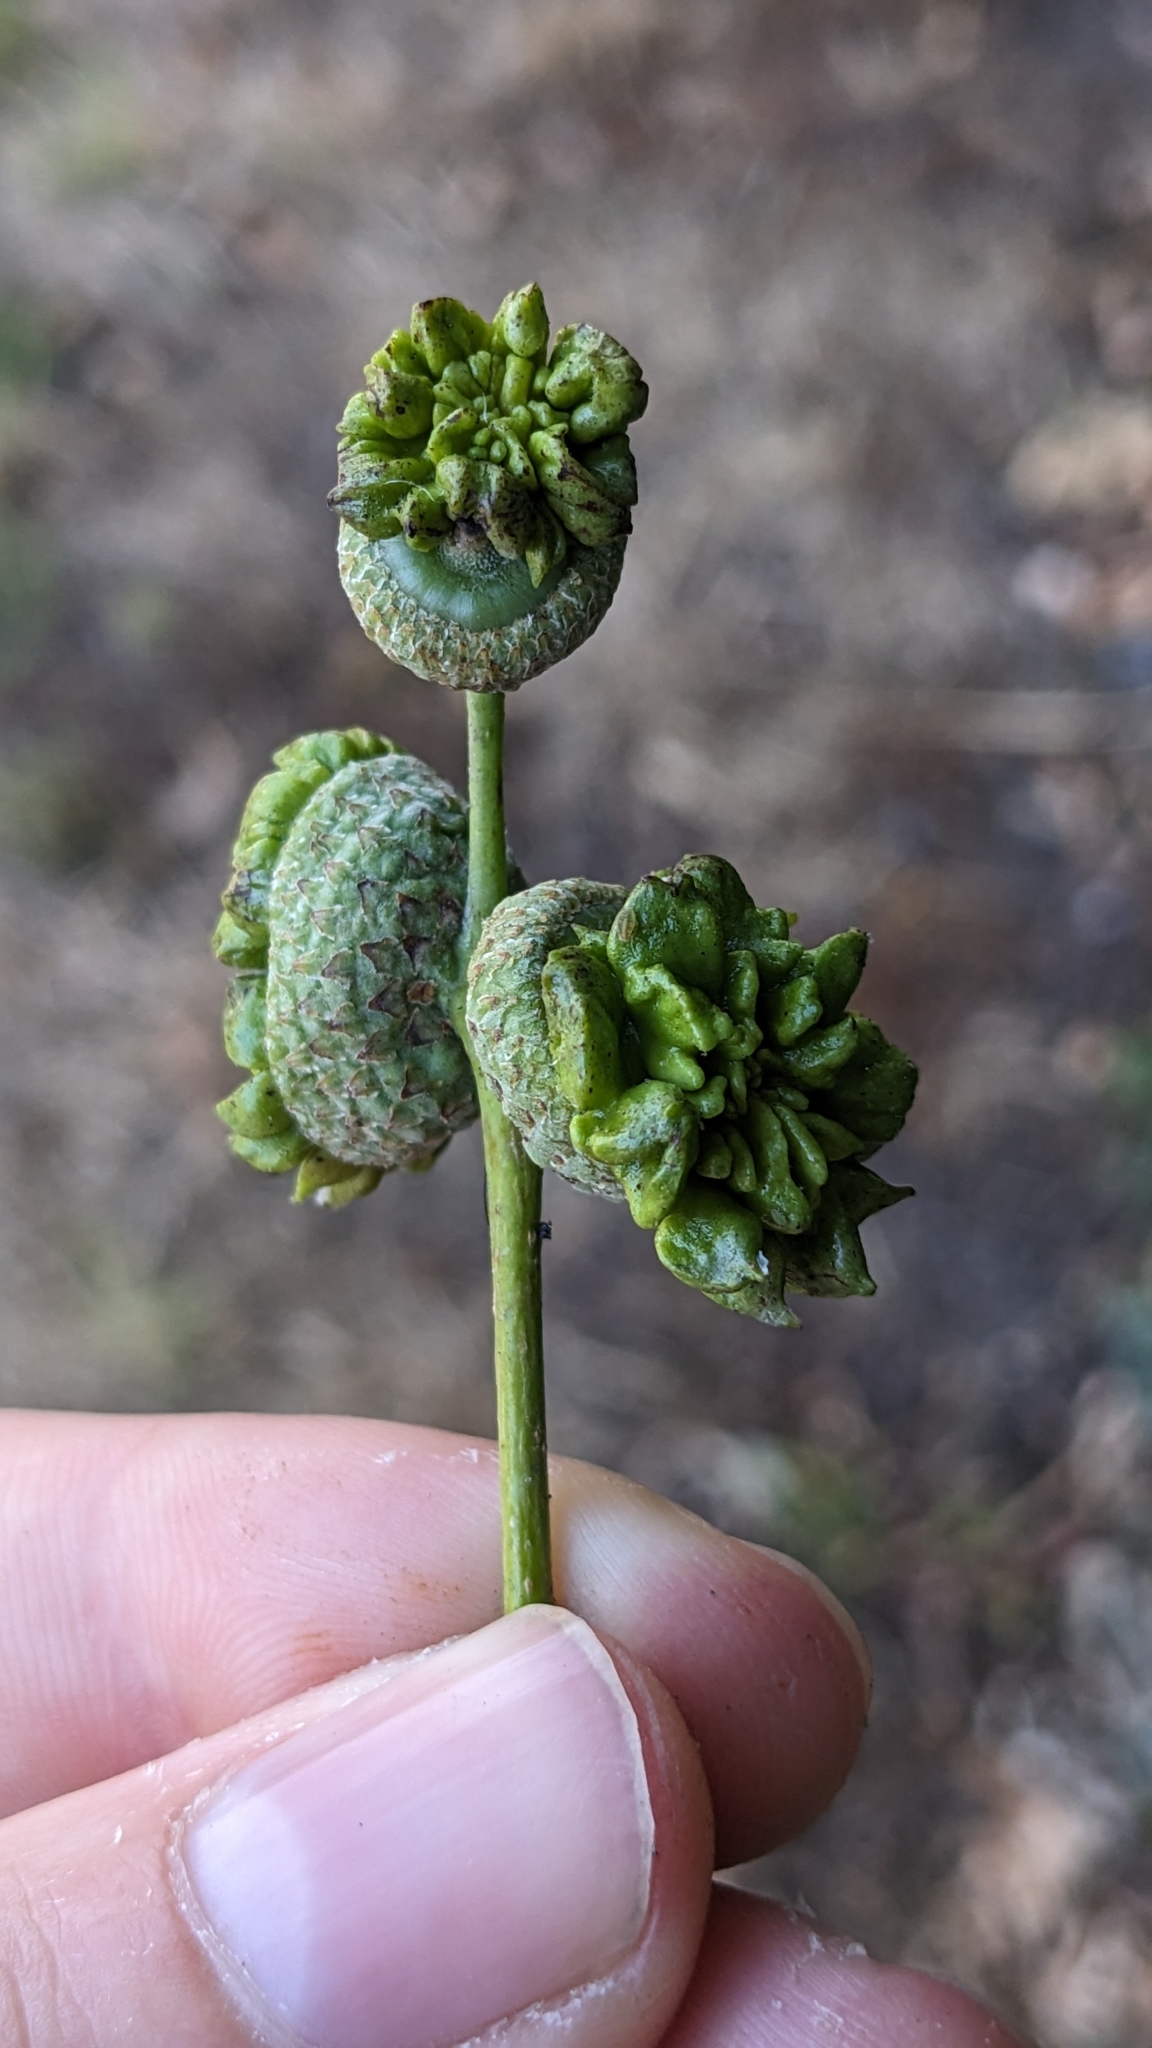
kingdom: Animalia
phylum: Arthropoda
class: Insecta
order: Hymenoptera
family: Cynipidae
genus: Andricus
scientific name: Andricus quercuscalicis
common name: Knopper gall
